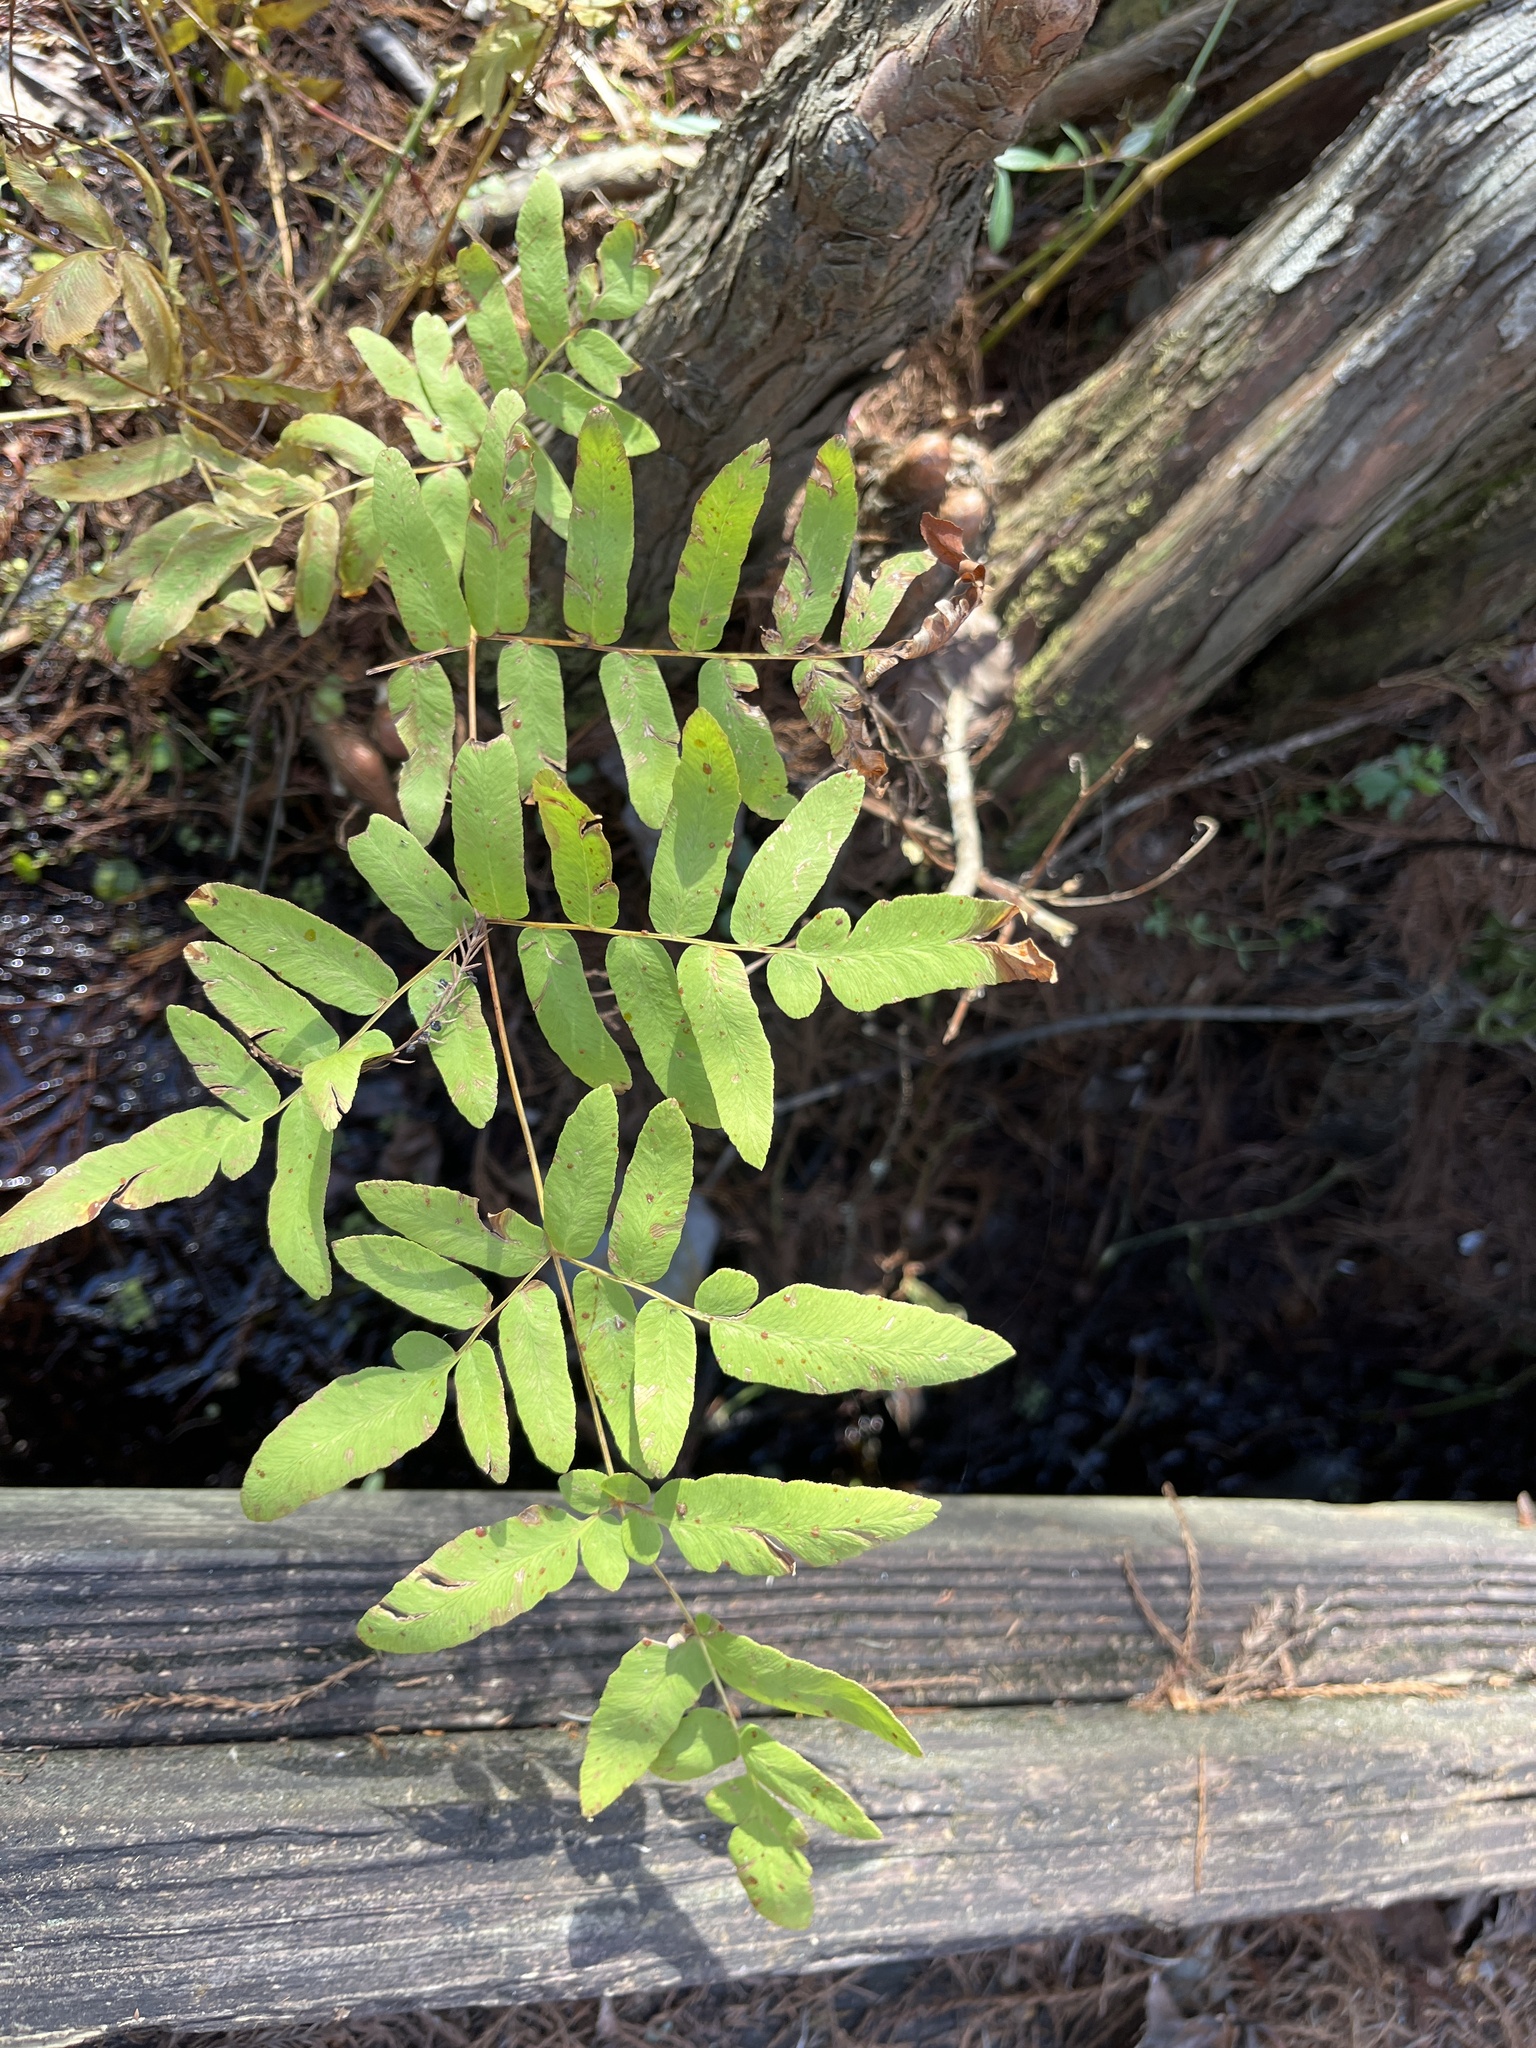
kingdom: Plantae
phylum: Tracheophyta
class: Polypodiopsida
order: Osmundales
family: Osmundaceae
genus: Osmunda
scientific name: Osmunda spectabilis
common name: American royal fern
